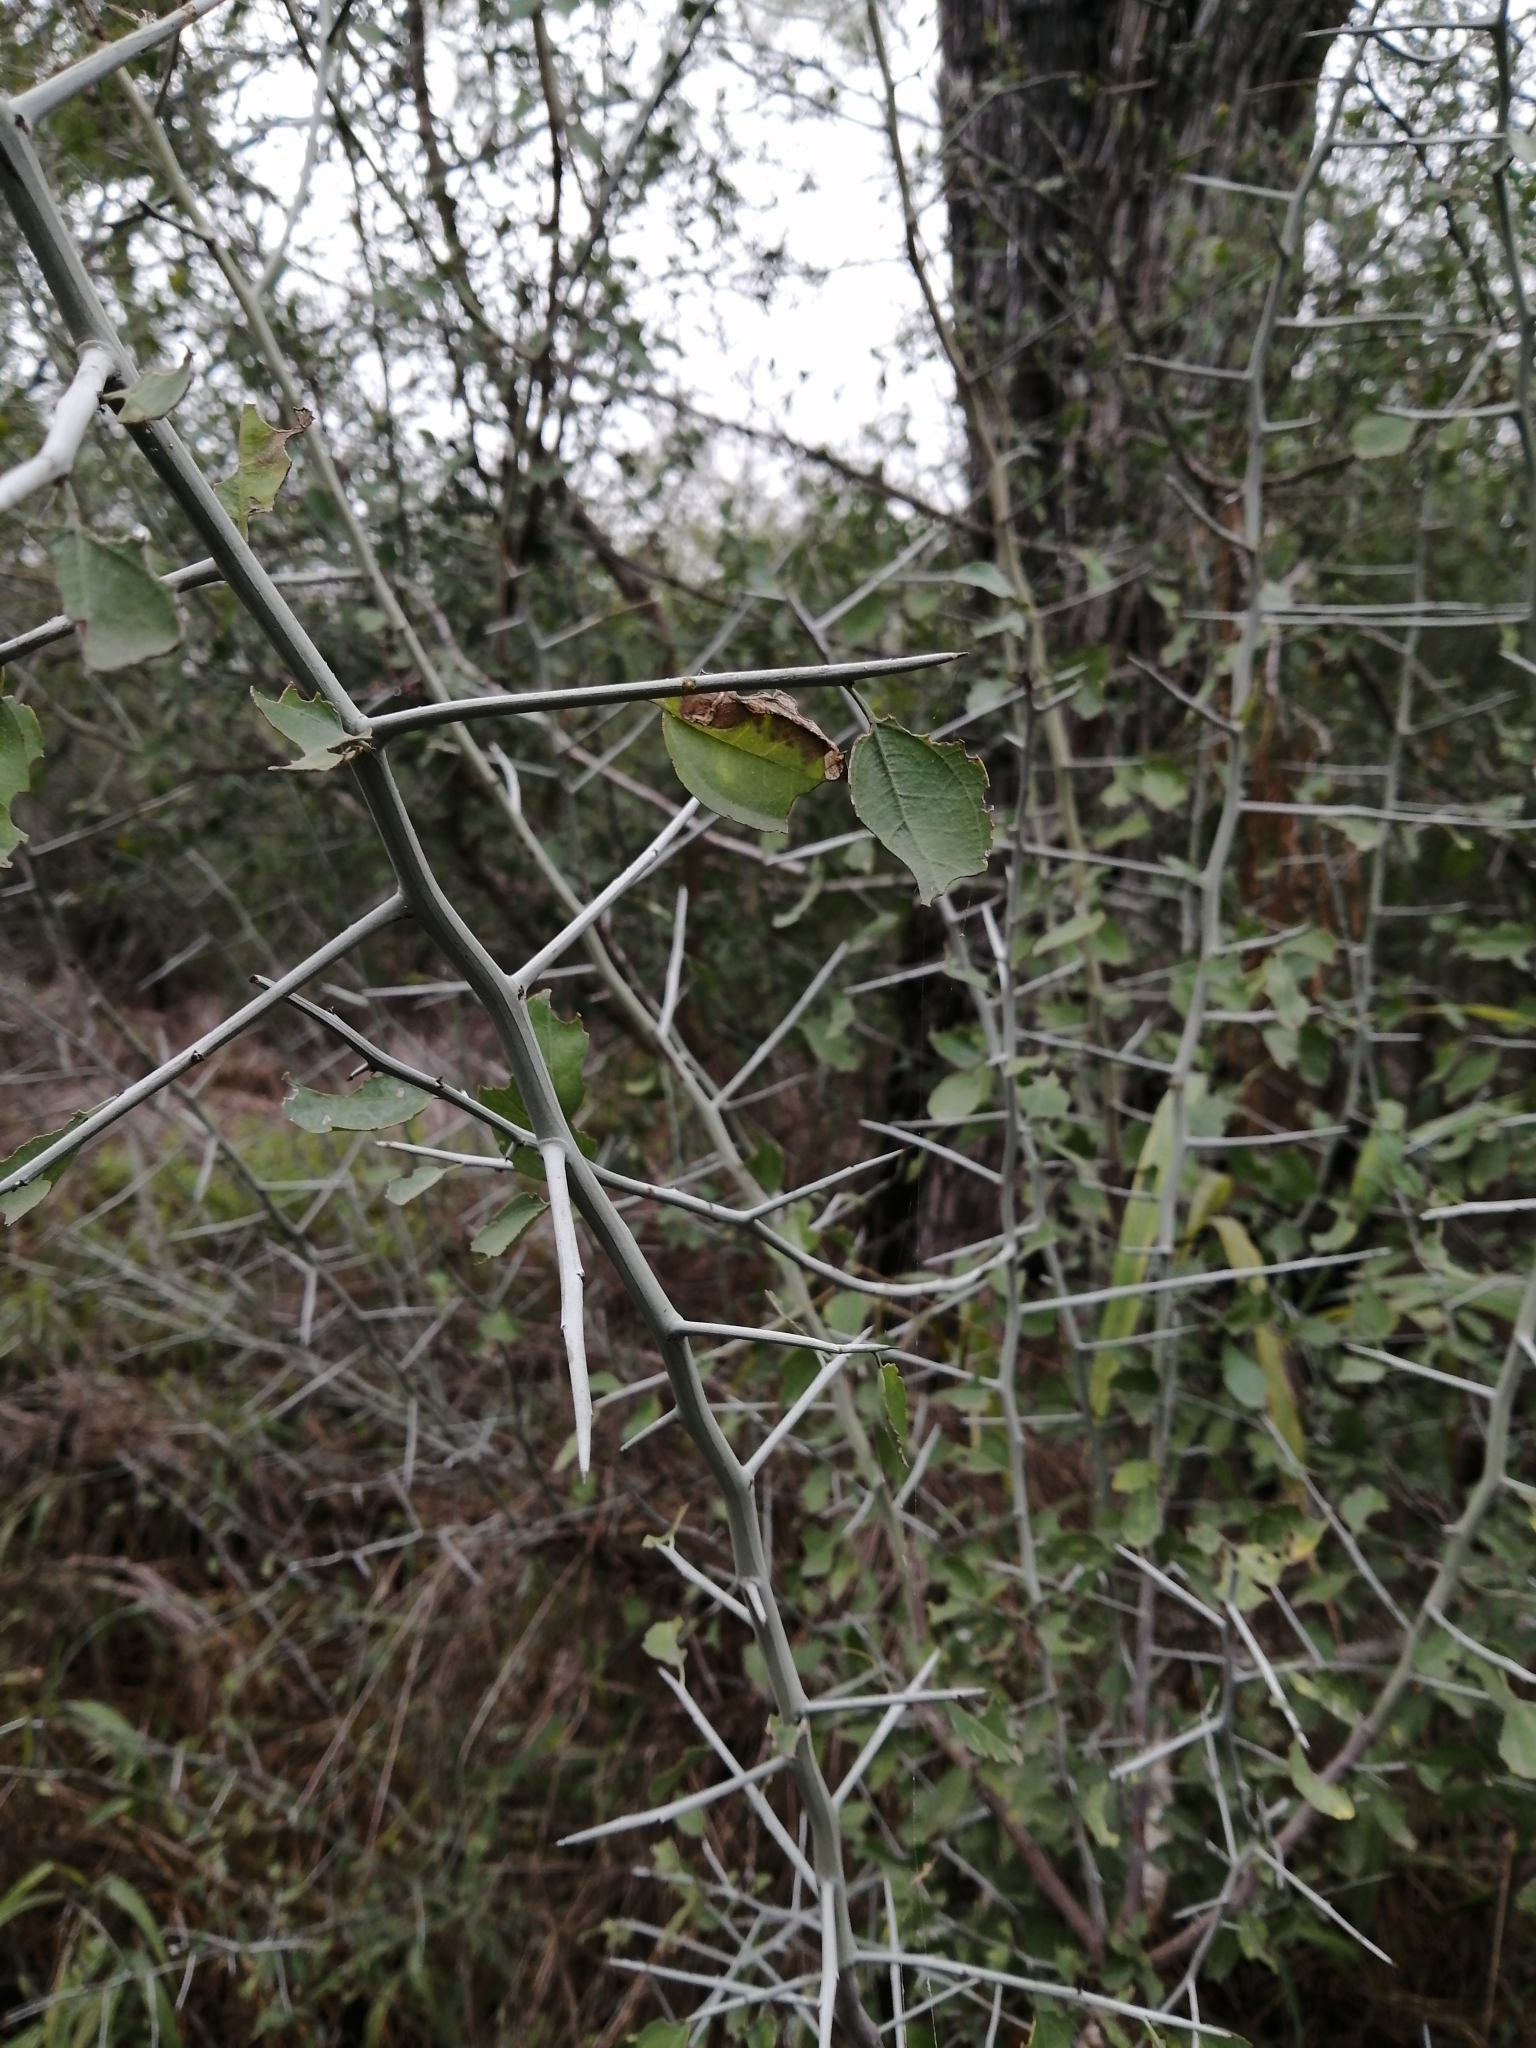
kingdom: Plantae
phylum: Tracheophyta
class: Magnoliopsida
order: Rosales
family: Rhamnaceae
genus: Sarcomphalus
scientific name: Sarcomphalus obtusifolius
